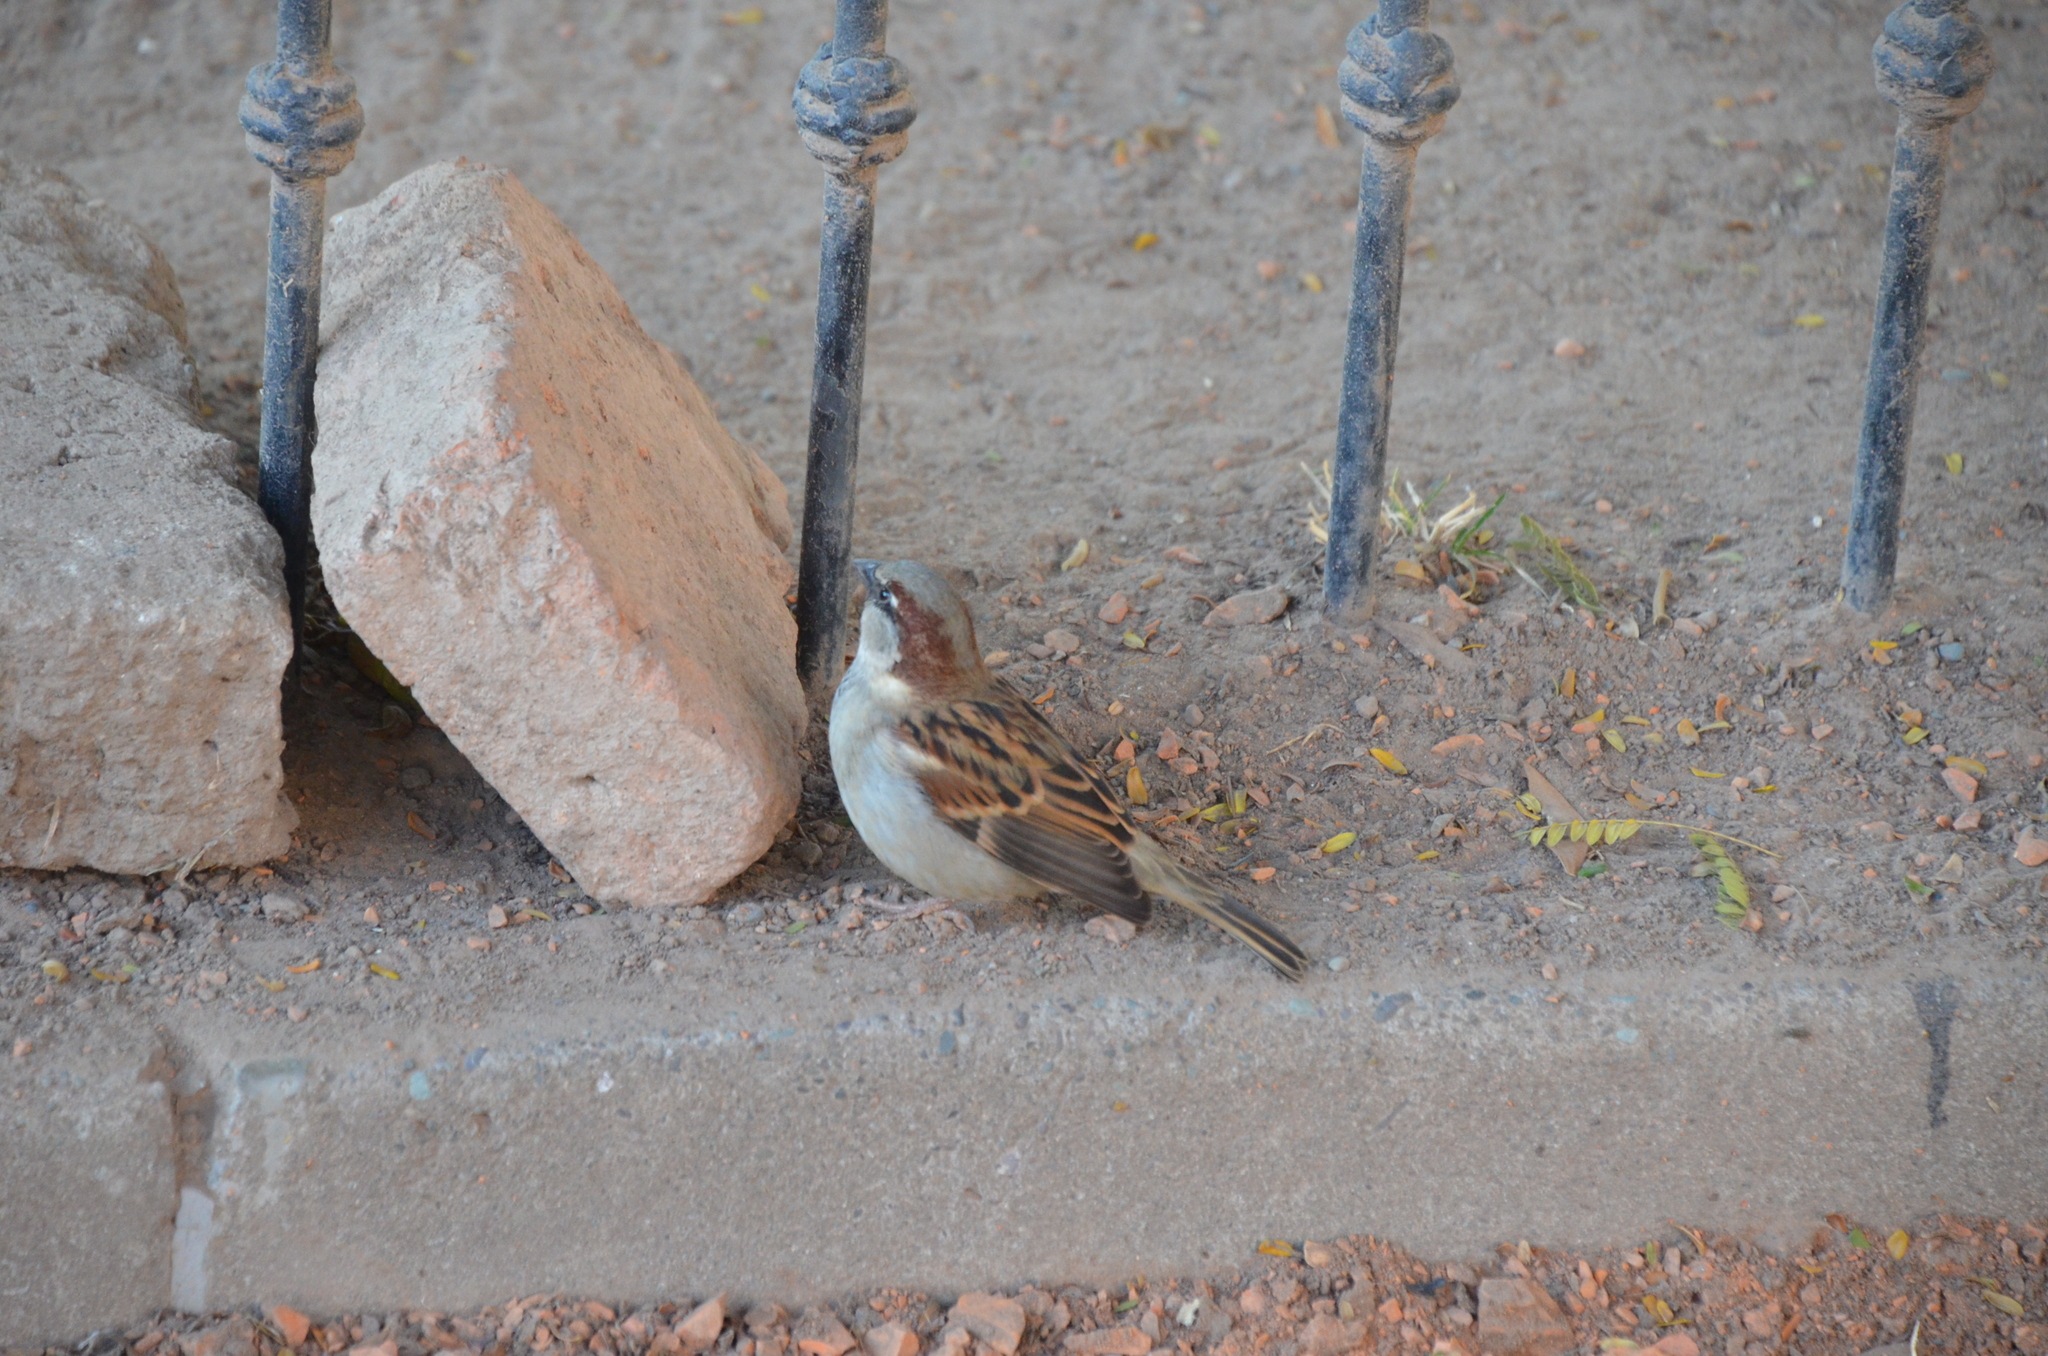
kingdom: Animalia
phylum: Chordata
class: Aves
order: Passeriformes
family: Passeridae
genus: Passer
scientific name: Passer domesticus
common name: House sparrow
